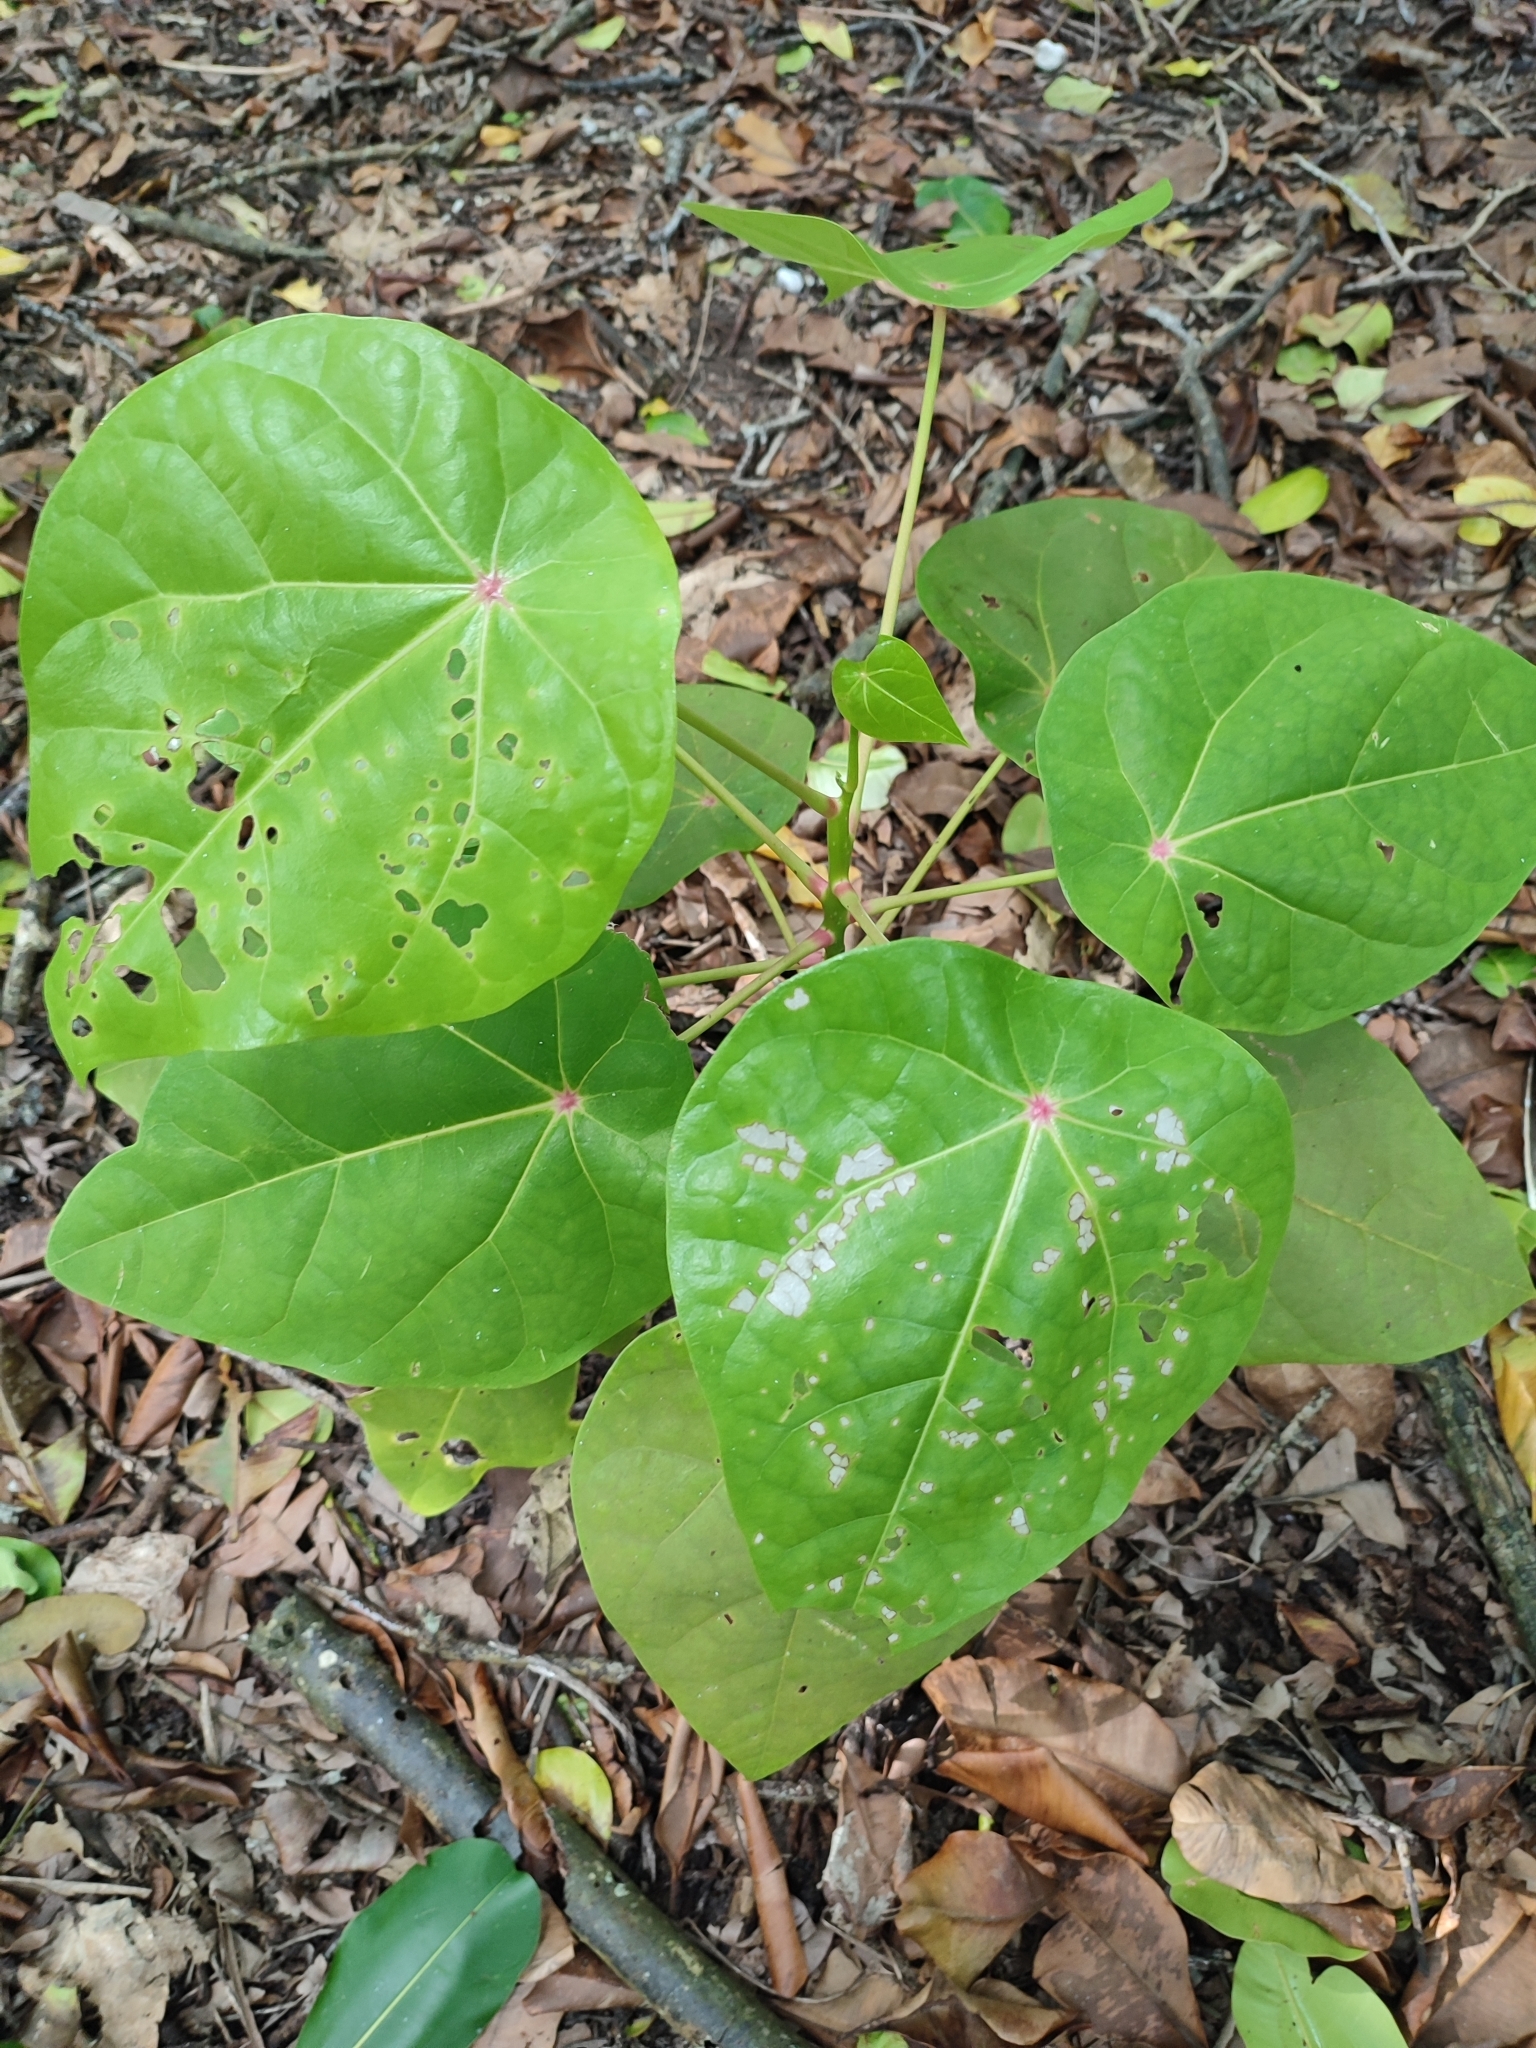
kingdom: Plantae
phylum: Tracheophyta
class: Magnoliopsida
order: Laurales
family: Hernandiaceae
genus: Hernandia
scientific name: Hernandia nymphaeifolia
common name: Sea hearse
